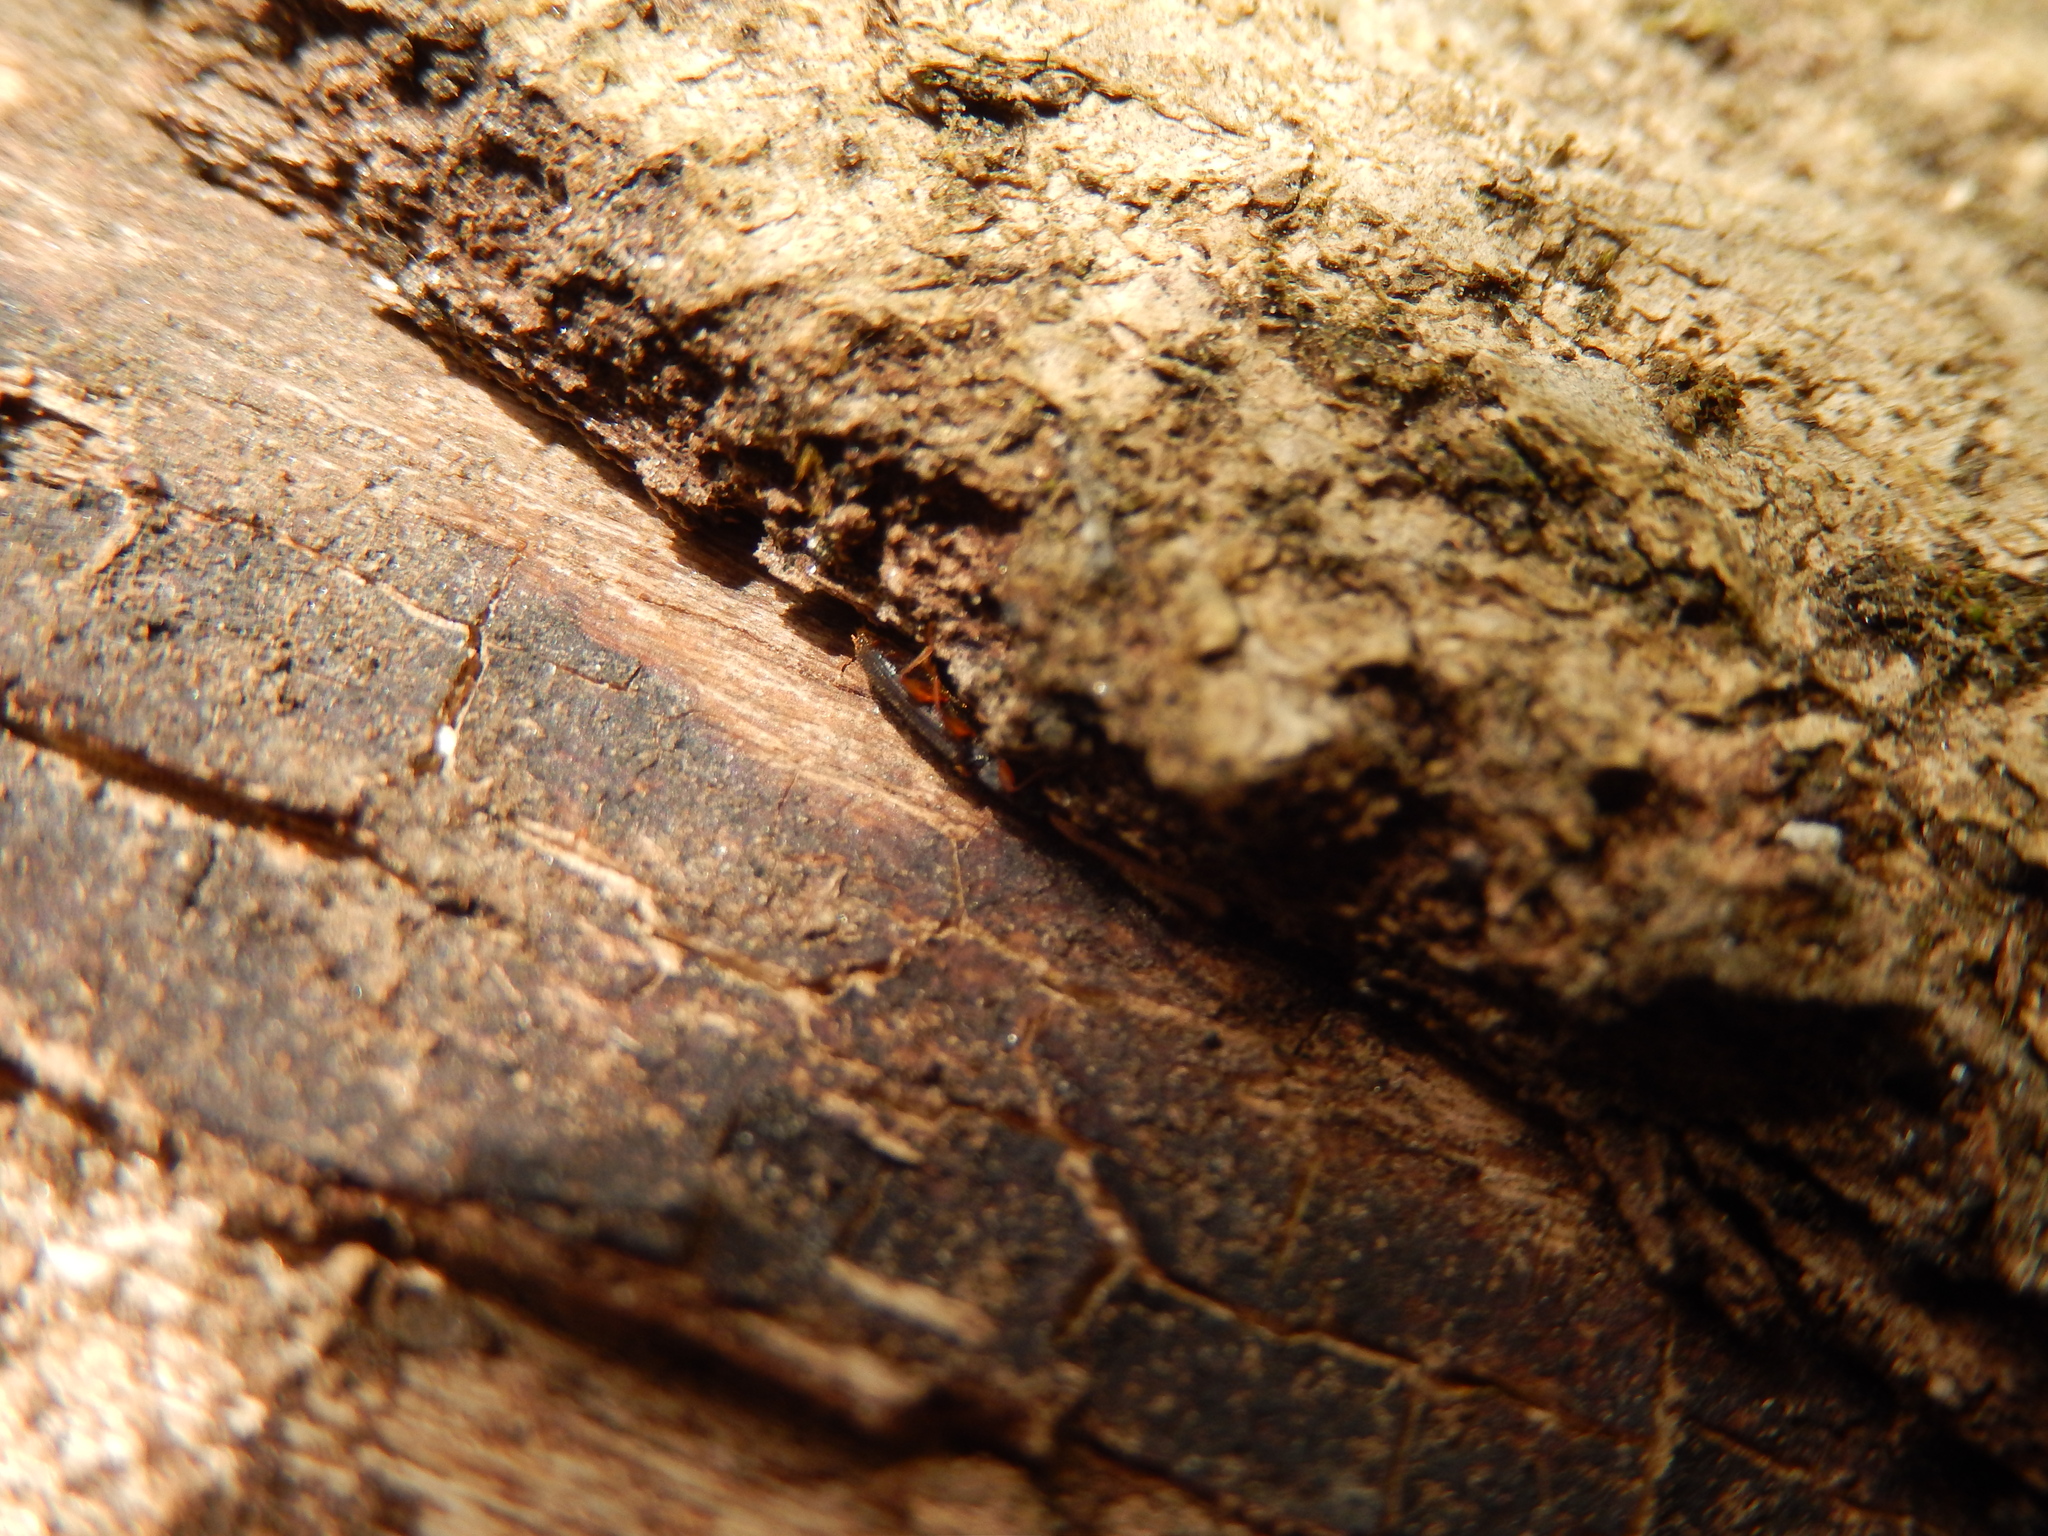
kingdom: Animalia
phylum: Arthropoda
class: Insecta
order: Coleoptera
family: Silvanidae
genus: Uleiota
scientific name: Uleiota planatus
